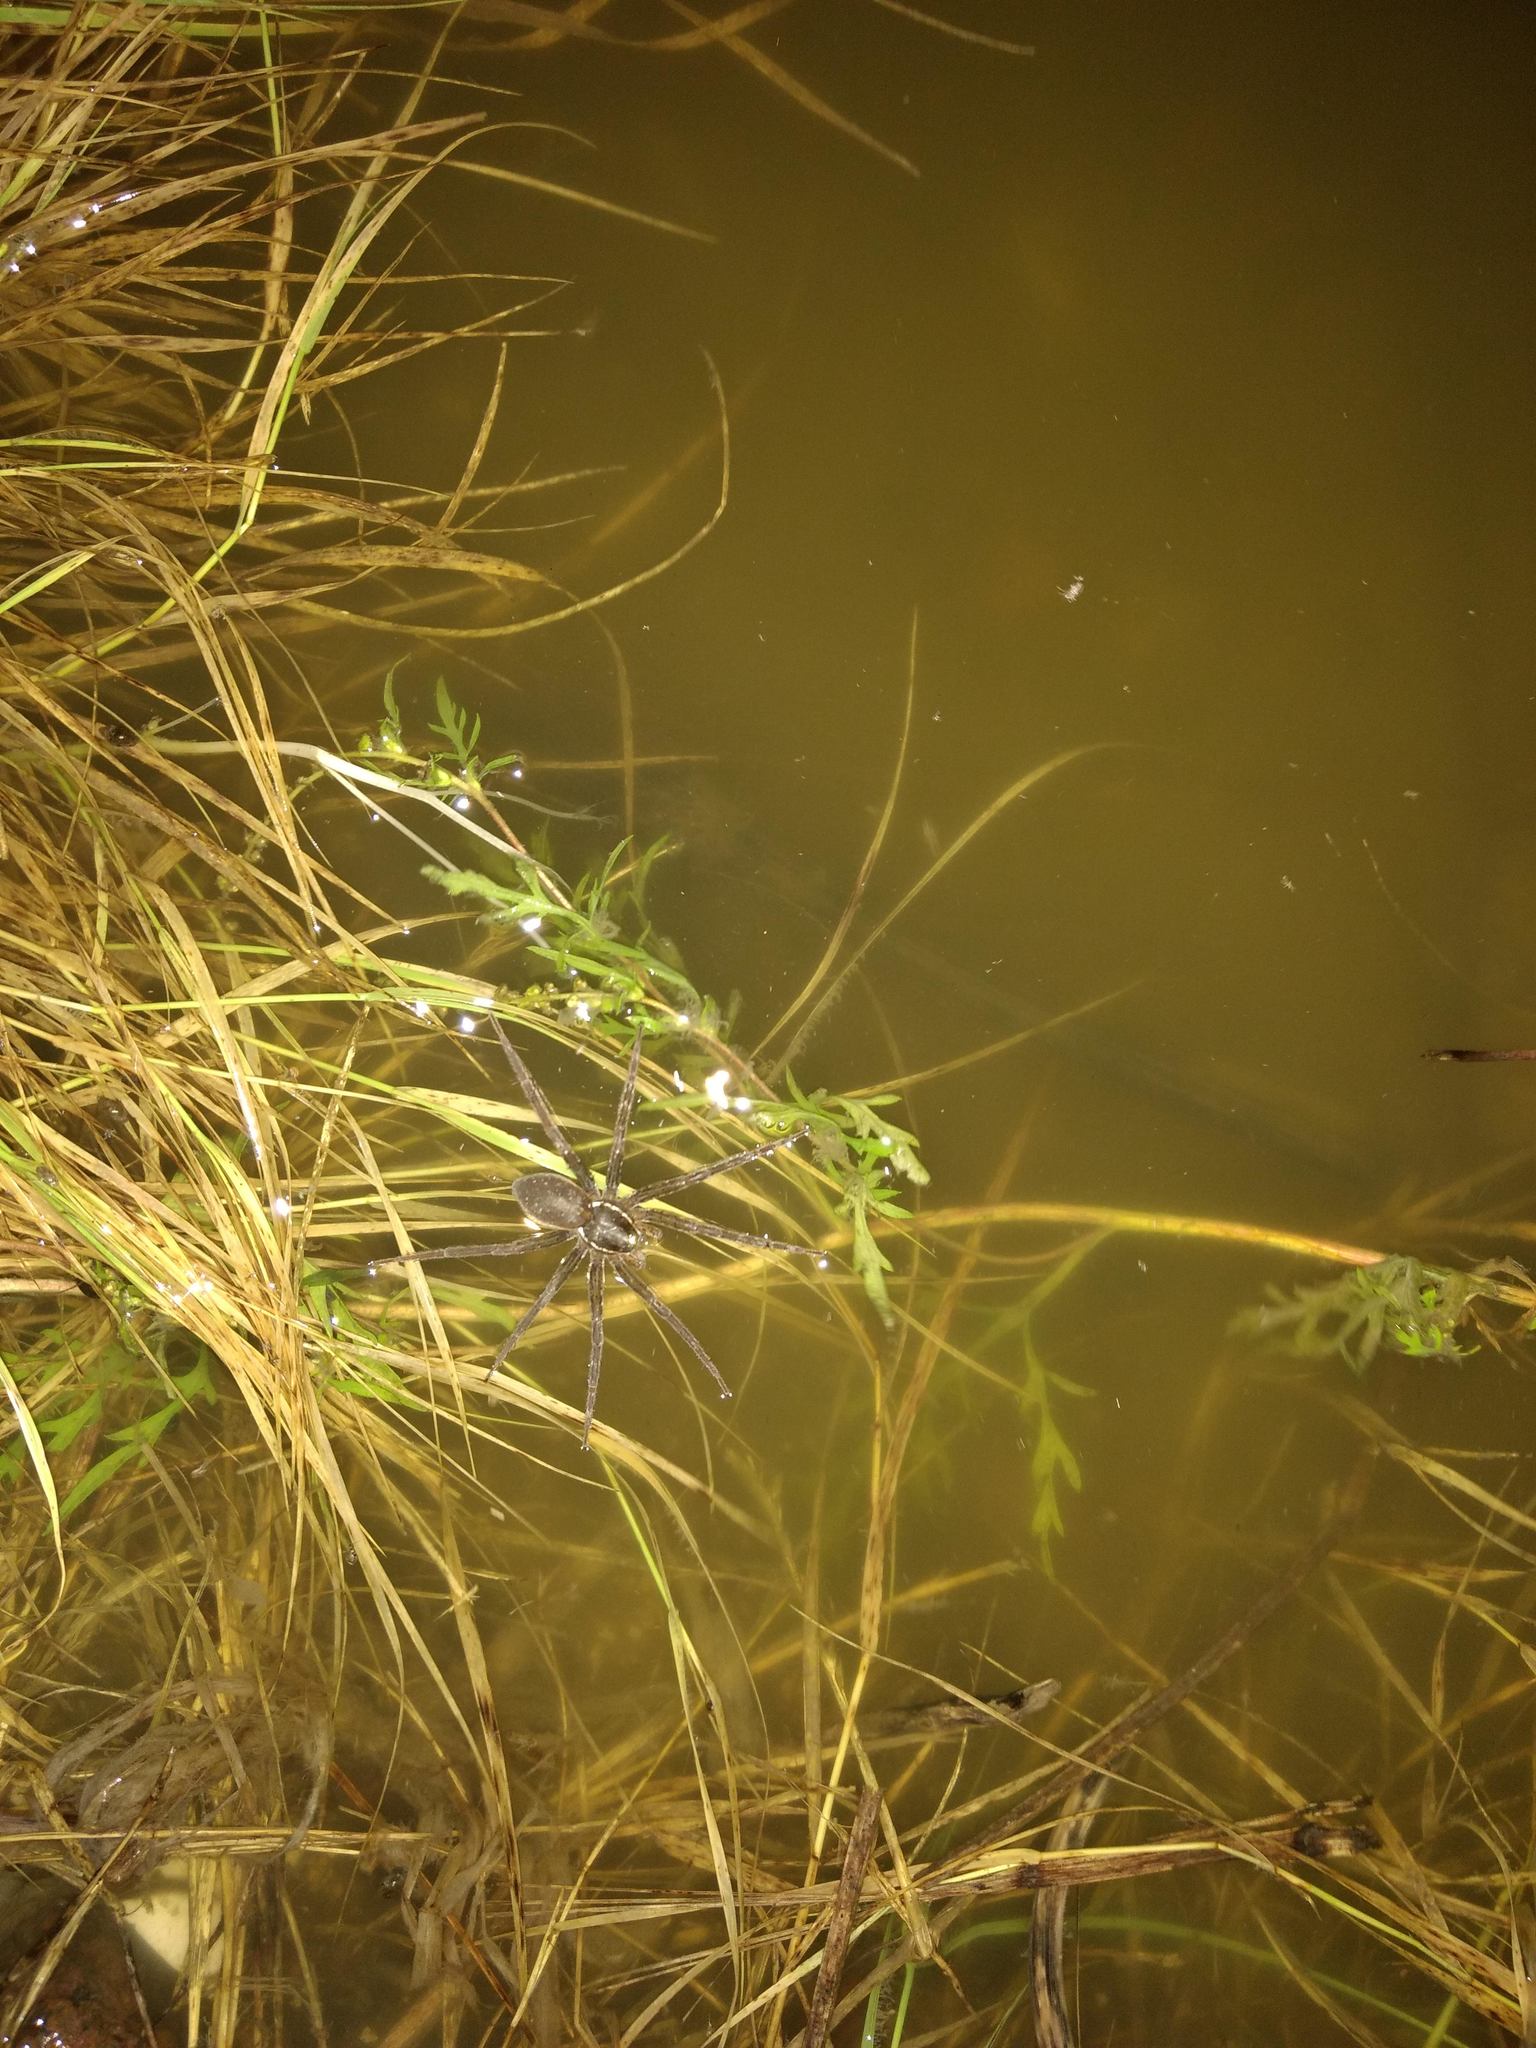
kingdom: Animalia
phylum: Arthropoda
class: Arachnida
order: Araneae
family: Pisauridae
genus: Dolomedes
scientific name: Dolomedes triton
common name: Six-spotted fishing spider
